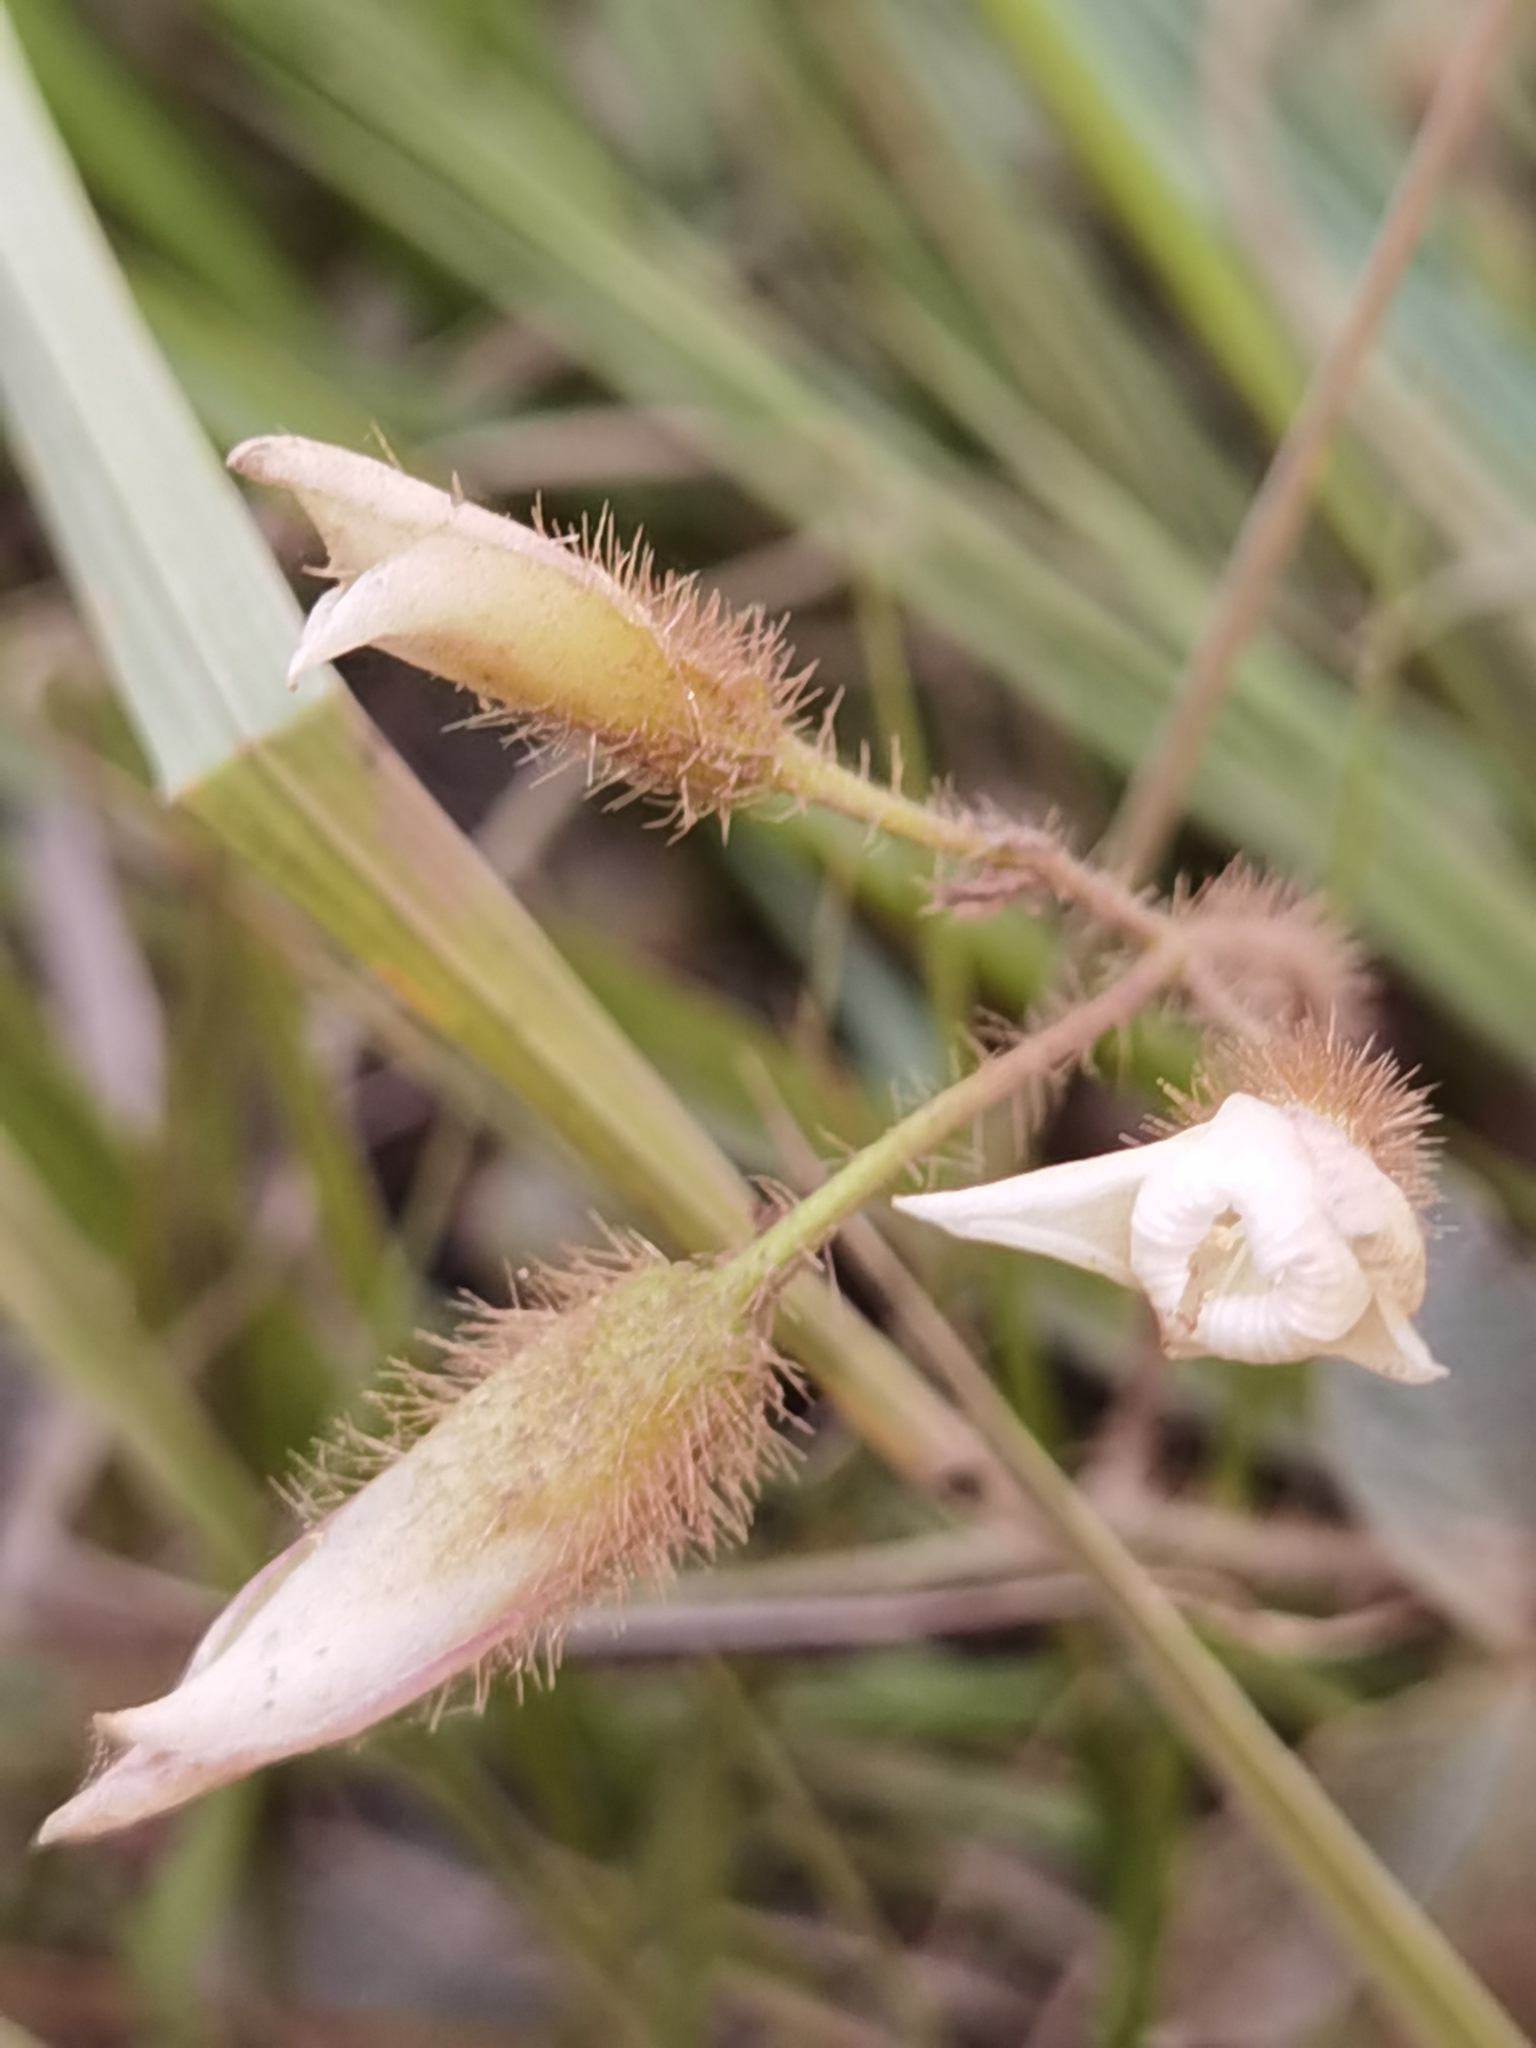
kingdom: Plantae
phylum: Tracheophyta
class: Magnoliopsida
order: Solanales
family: Convolvulaceae
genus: Distimake
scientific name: Distimake aegyptius
